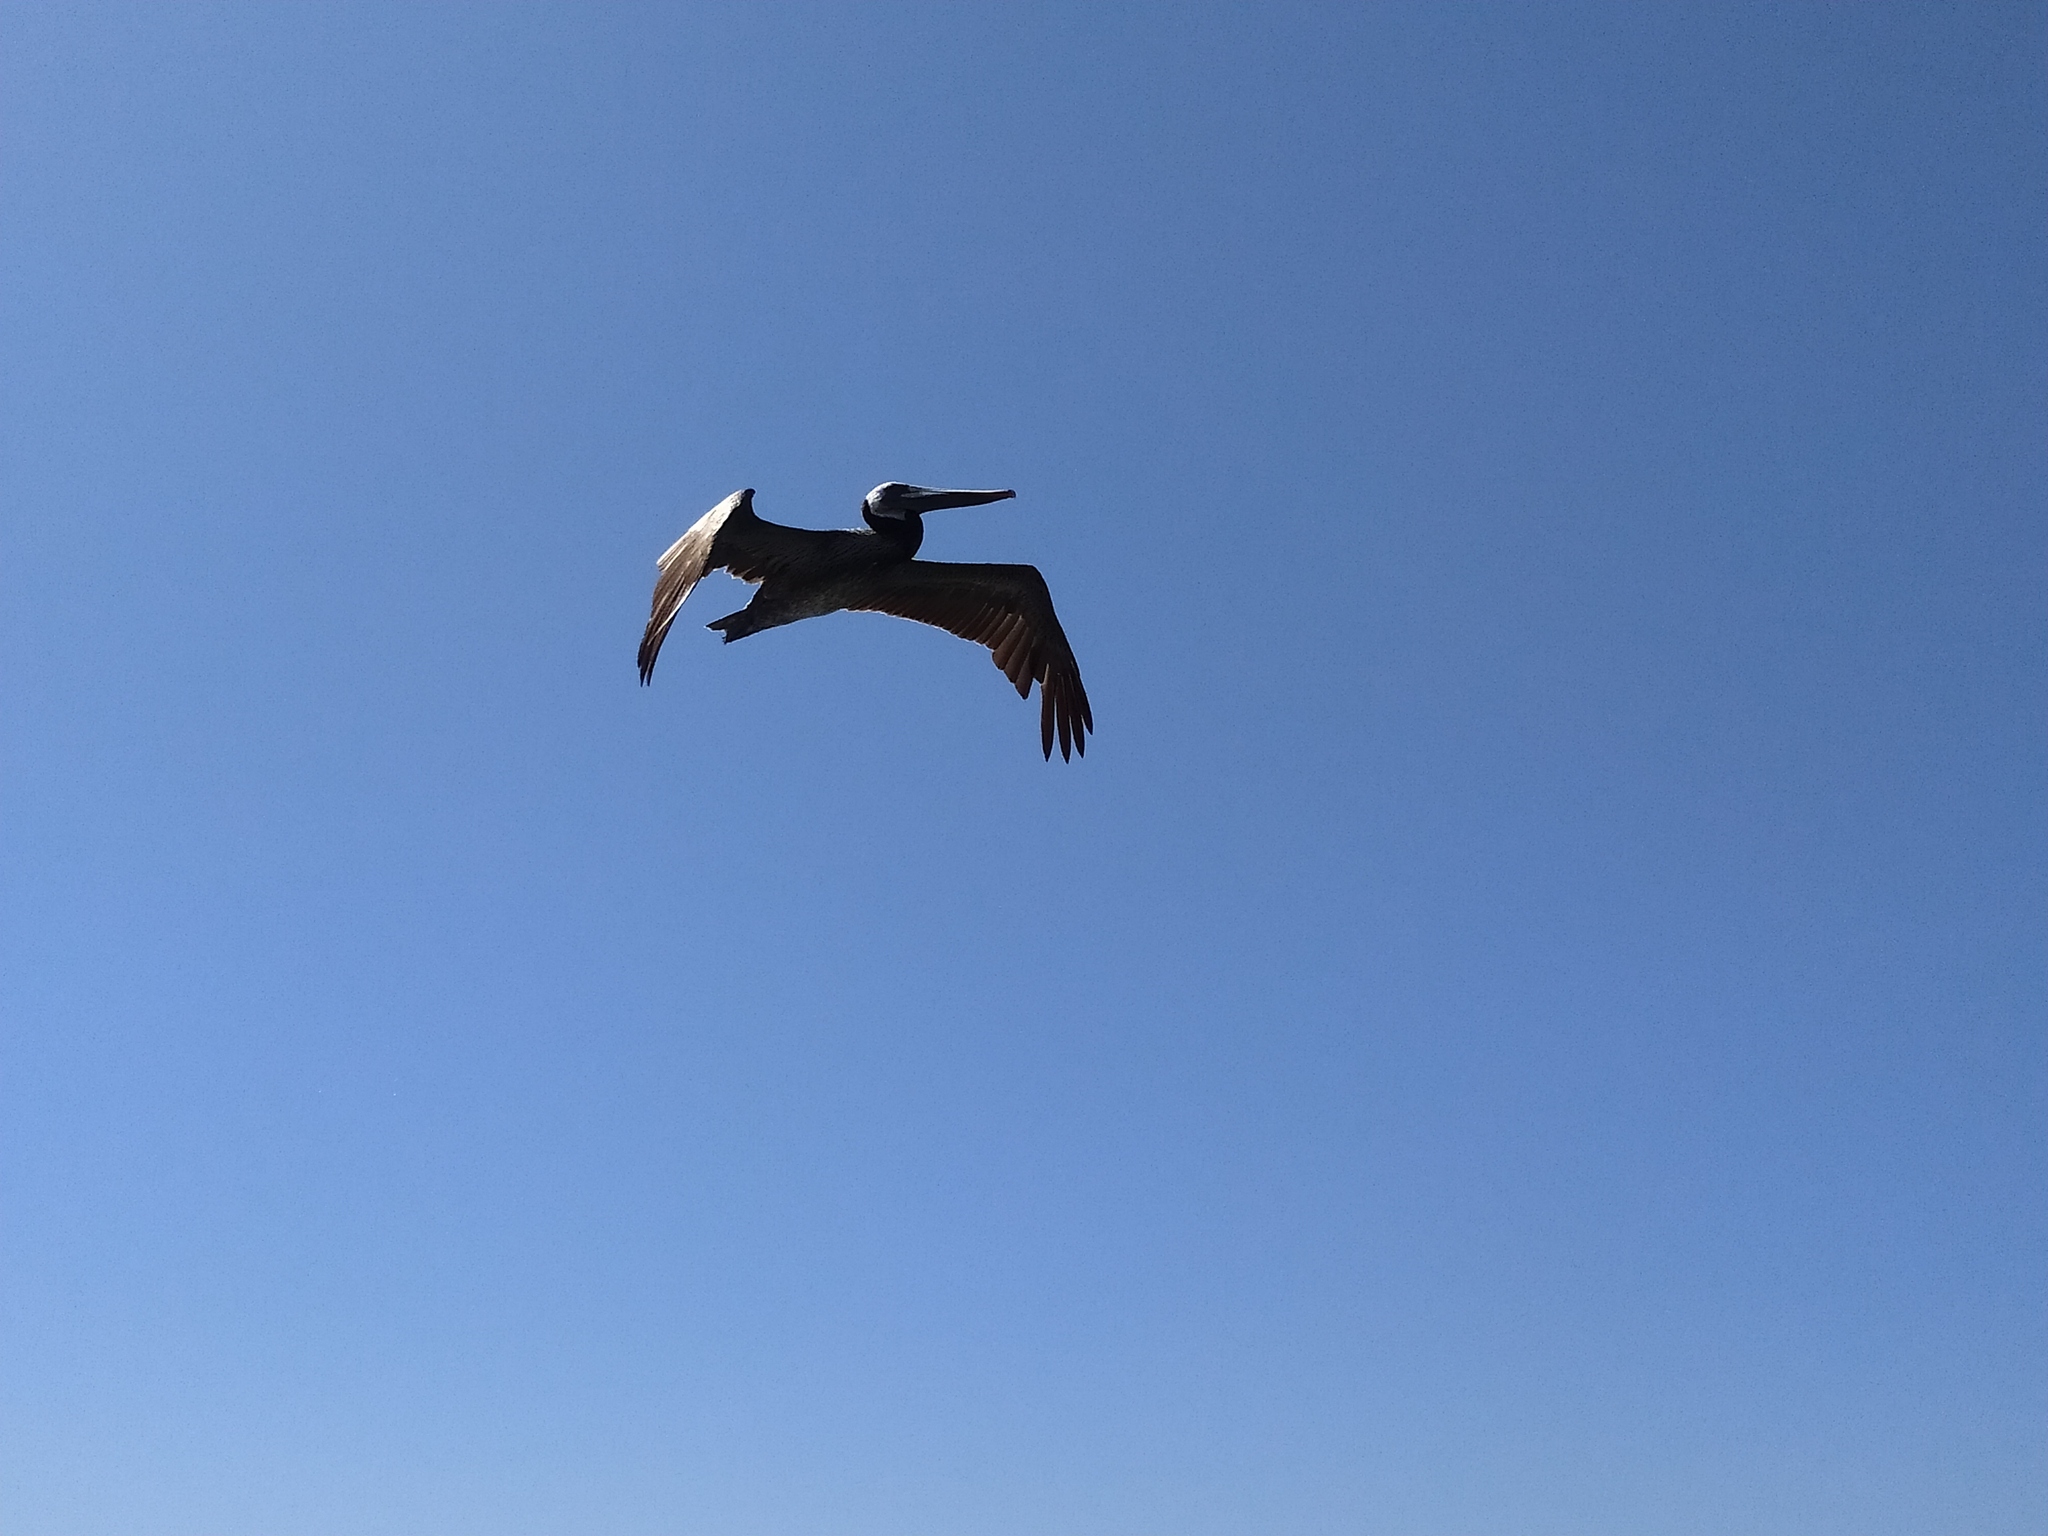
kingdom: Animalia
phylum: Chordata
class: Aves
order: Pelecaniformes
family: Pelecanidae
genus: Pelecanus
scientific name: Pelecanus occidentalis
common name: Brown pelican
